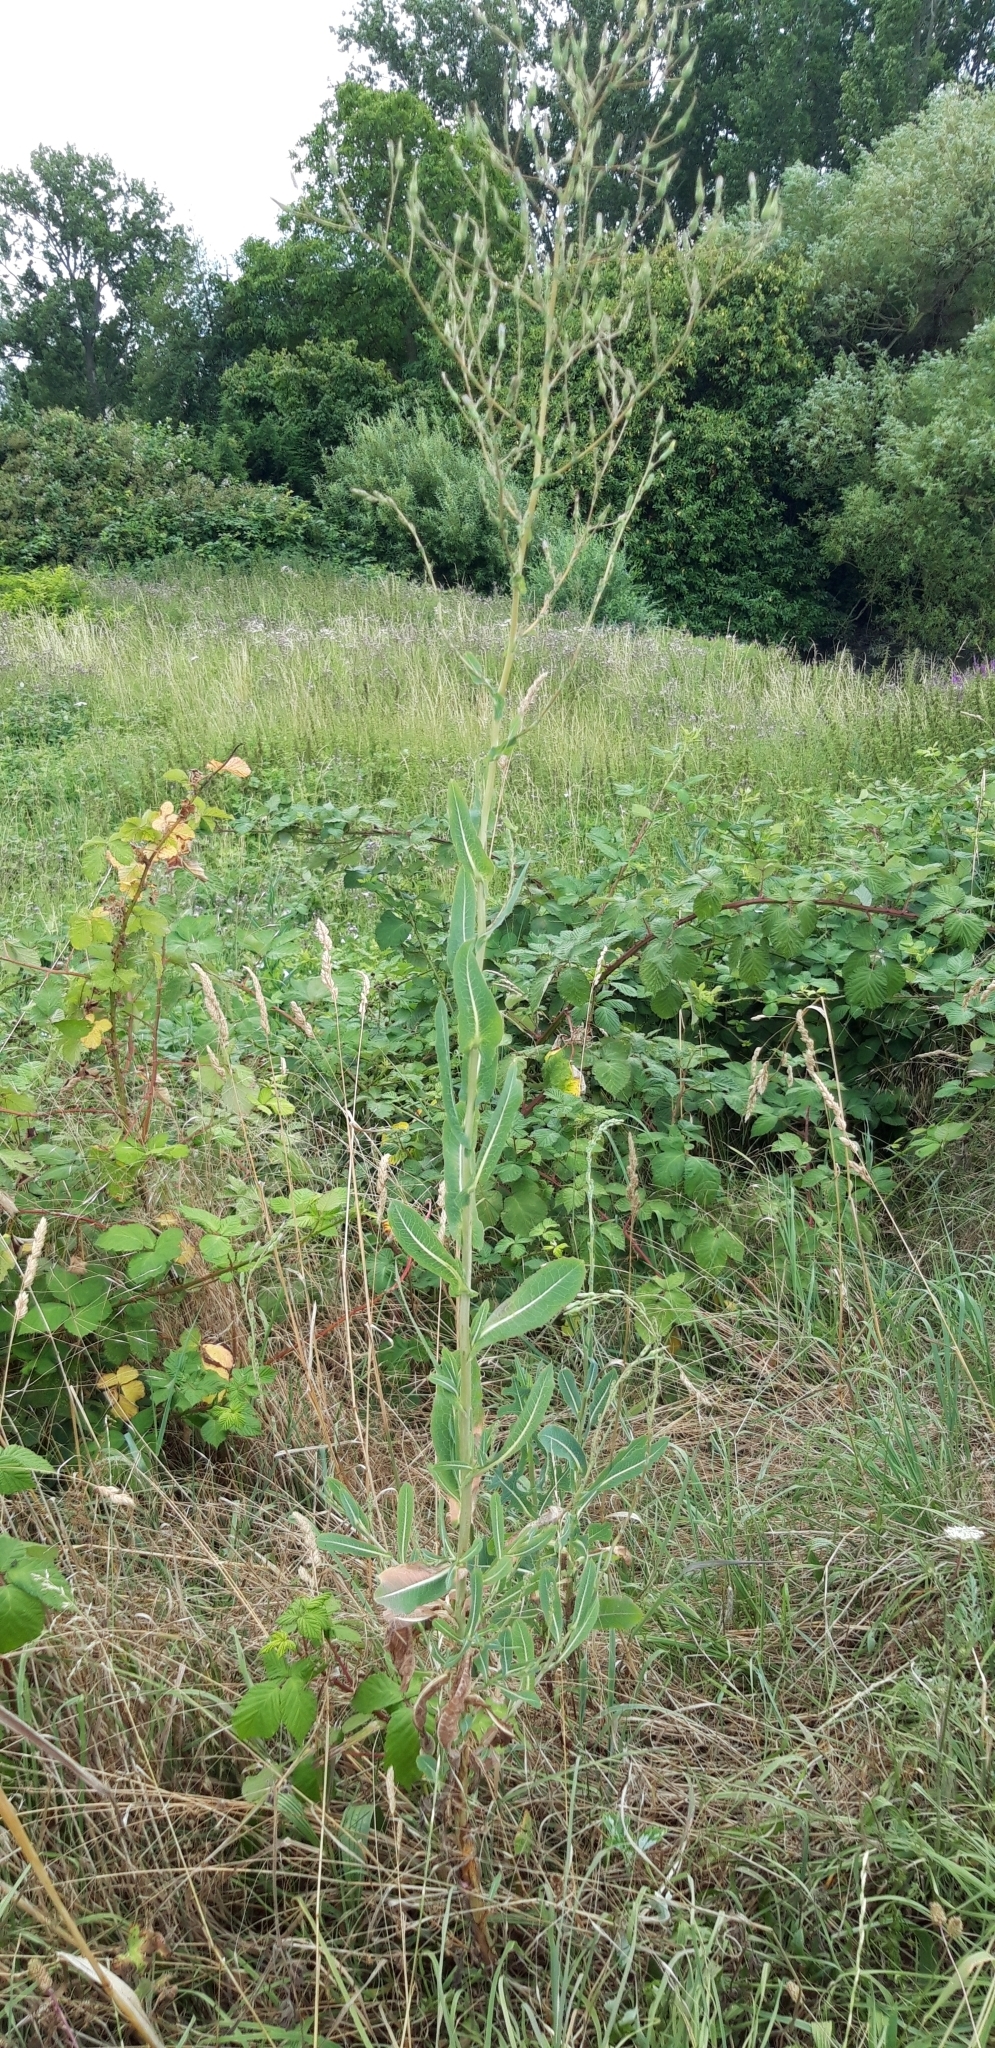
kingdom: Plantae
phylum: Tracheophyta
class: Magnoliopsida
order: Asterales
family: Asteraceae
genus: Lactuca
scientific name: Lactuca serriola
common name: Prickly lettuce
